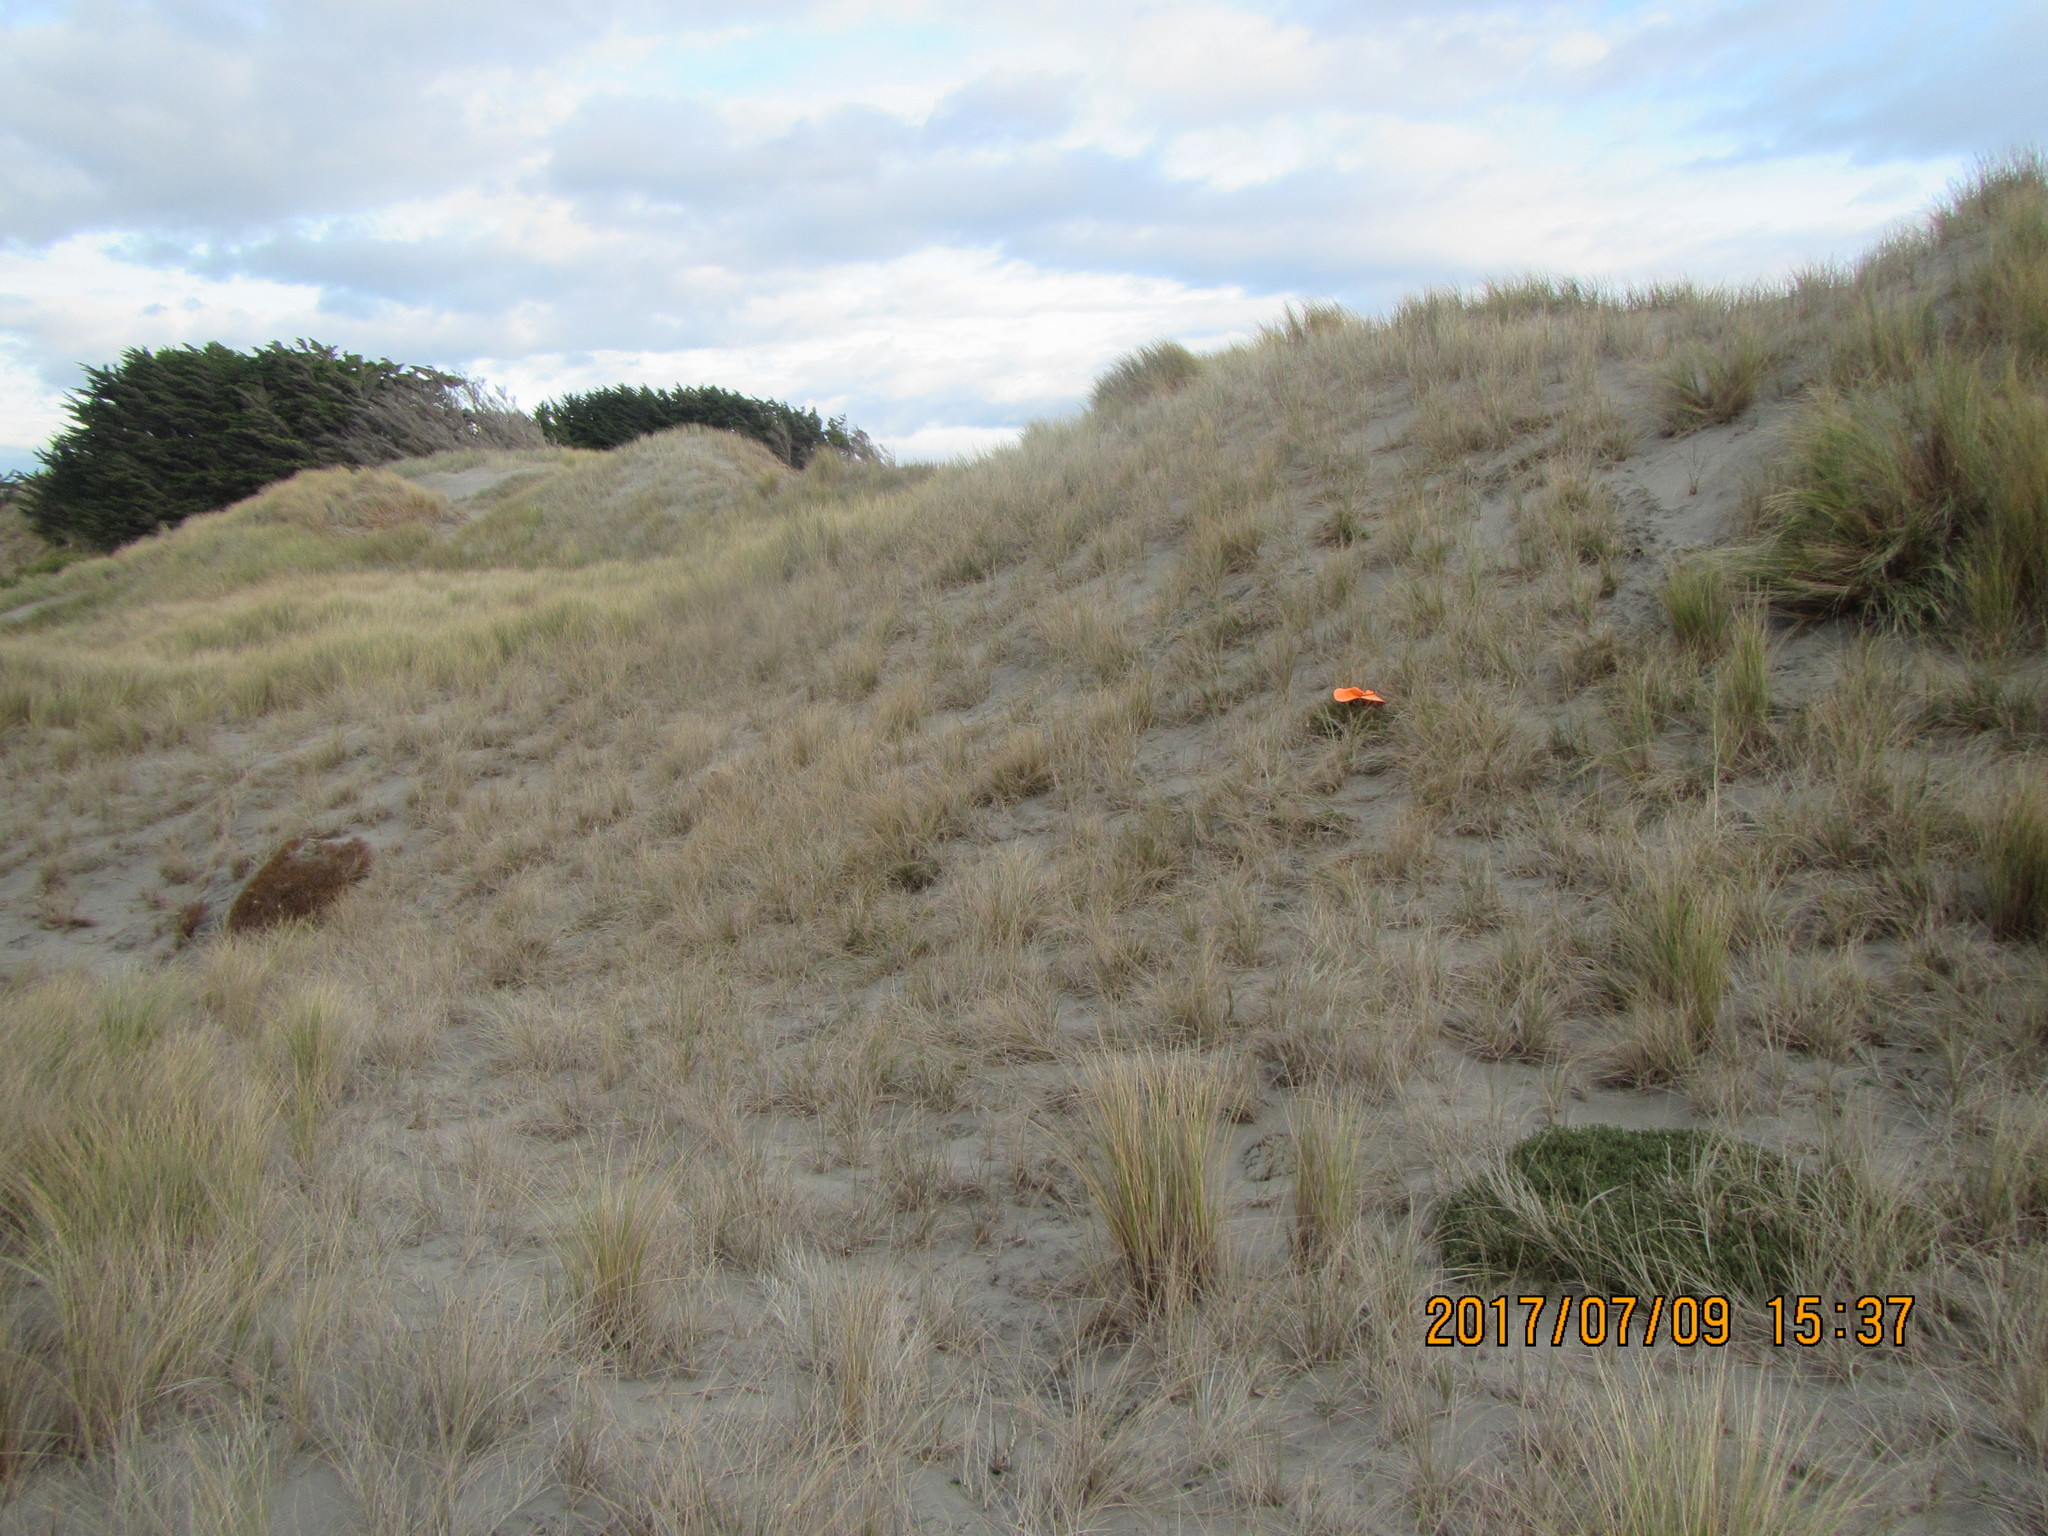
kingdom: Animalia
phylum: Arthropoda
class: Arachnida
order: Araneae
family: Theridiidae
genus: Latrodectus
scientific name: Latrodectus katipo
